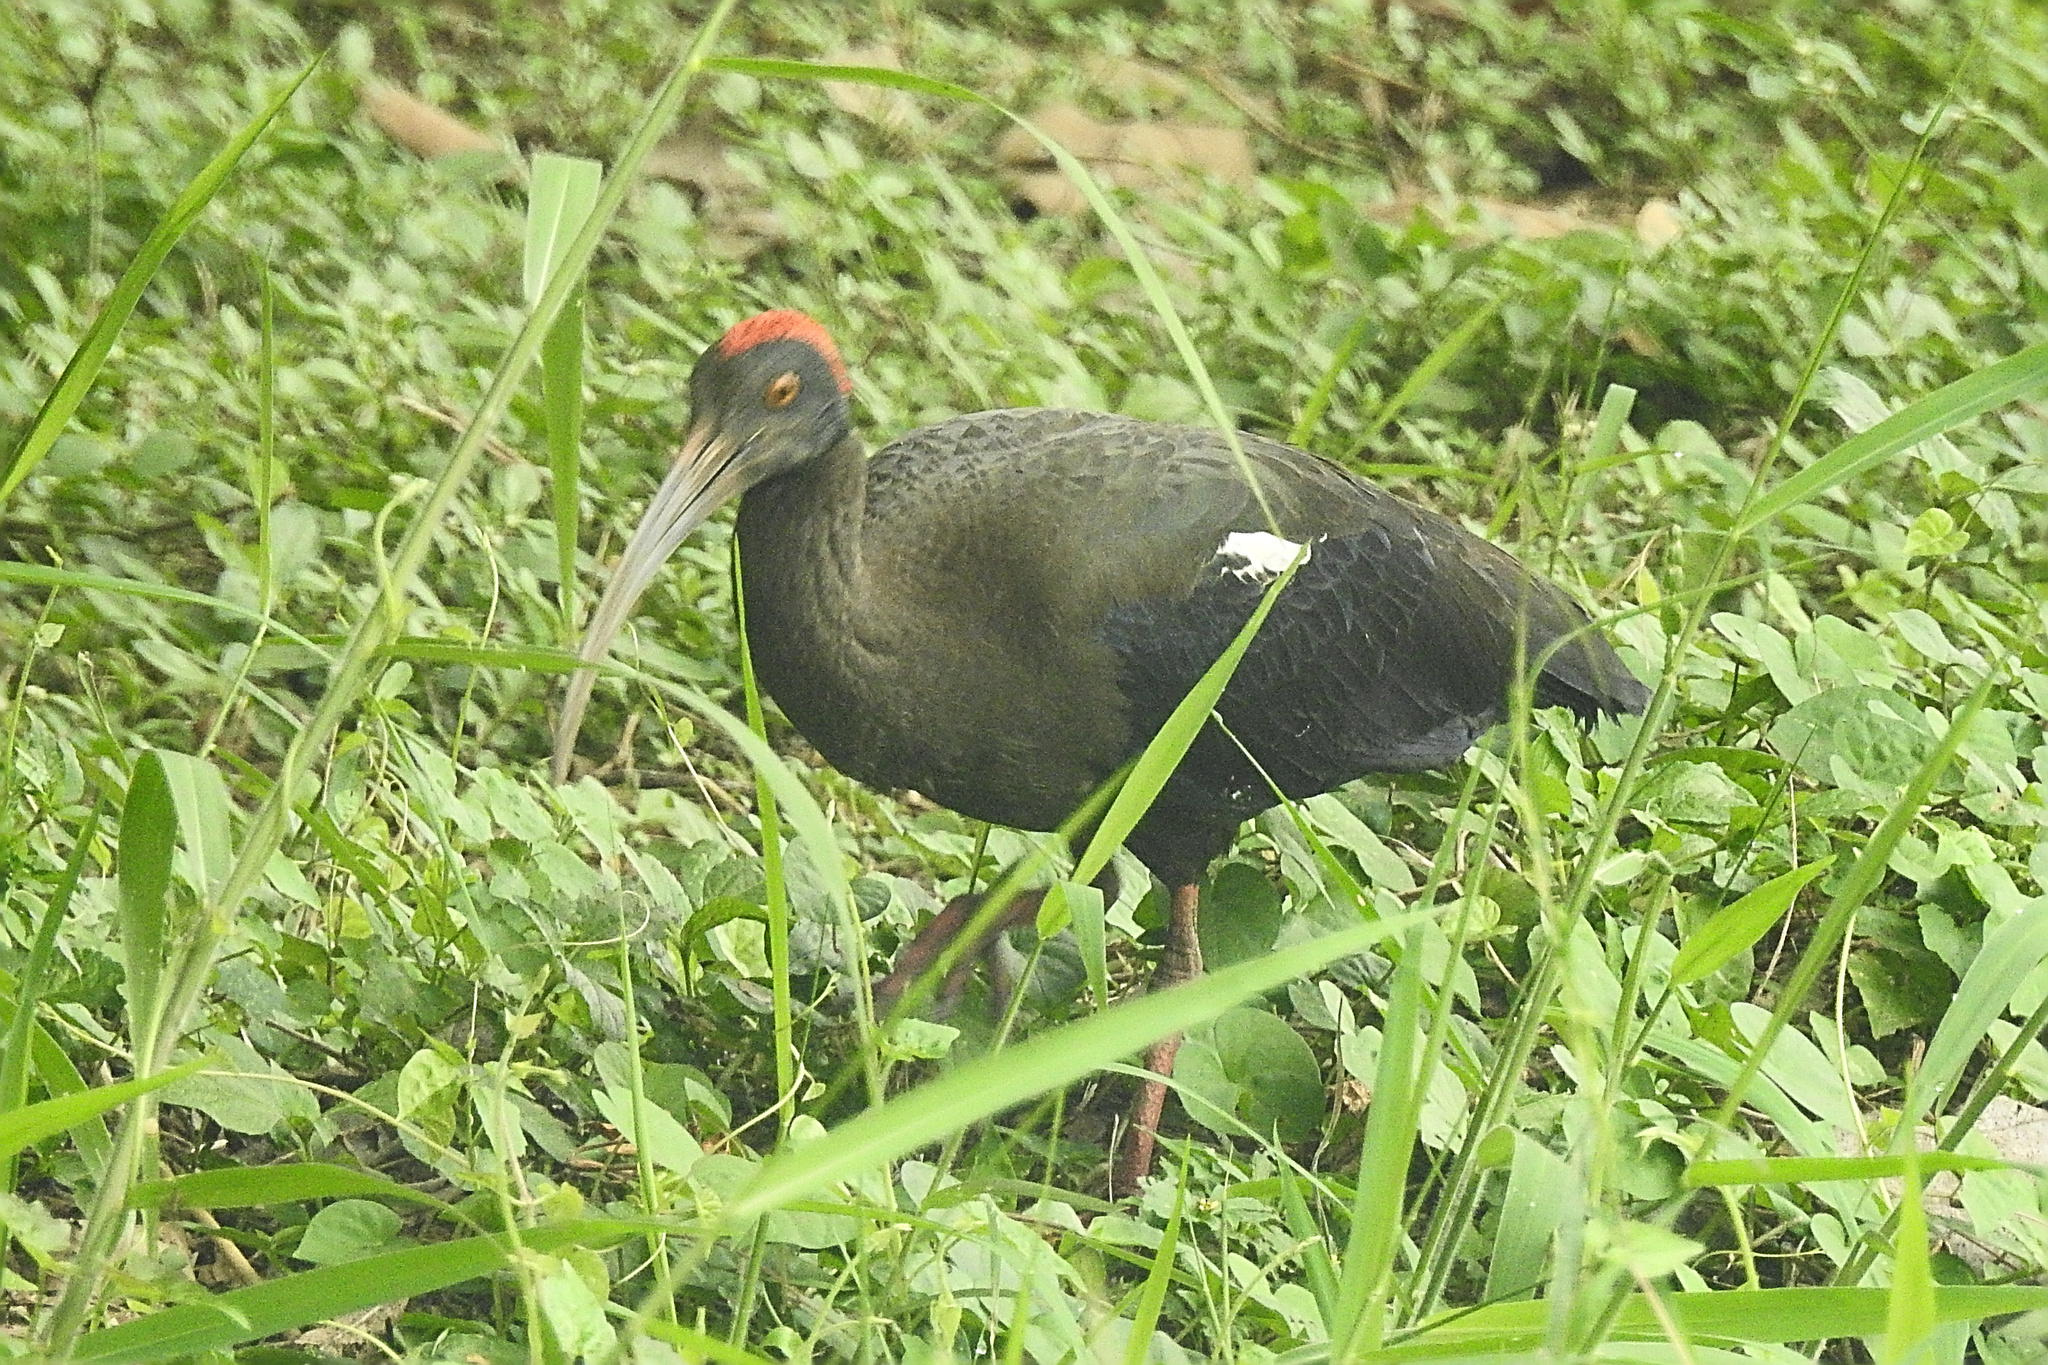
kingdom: Animalia
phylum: Chordata
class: Aves
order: Pelecaniformes
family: Threskiornithidae
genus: Pseudibis
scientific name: Pseudibis papillosa
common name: Red-naped ibis
